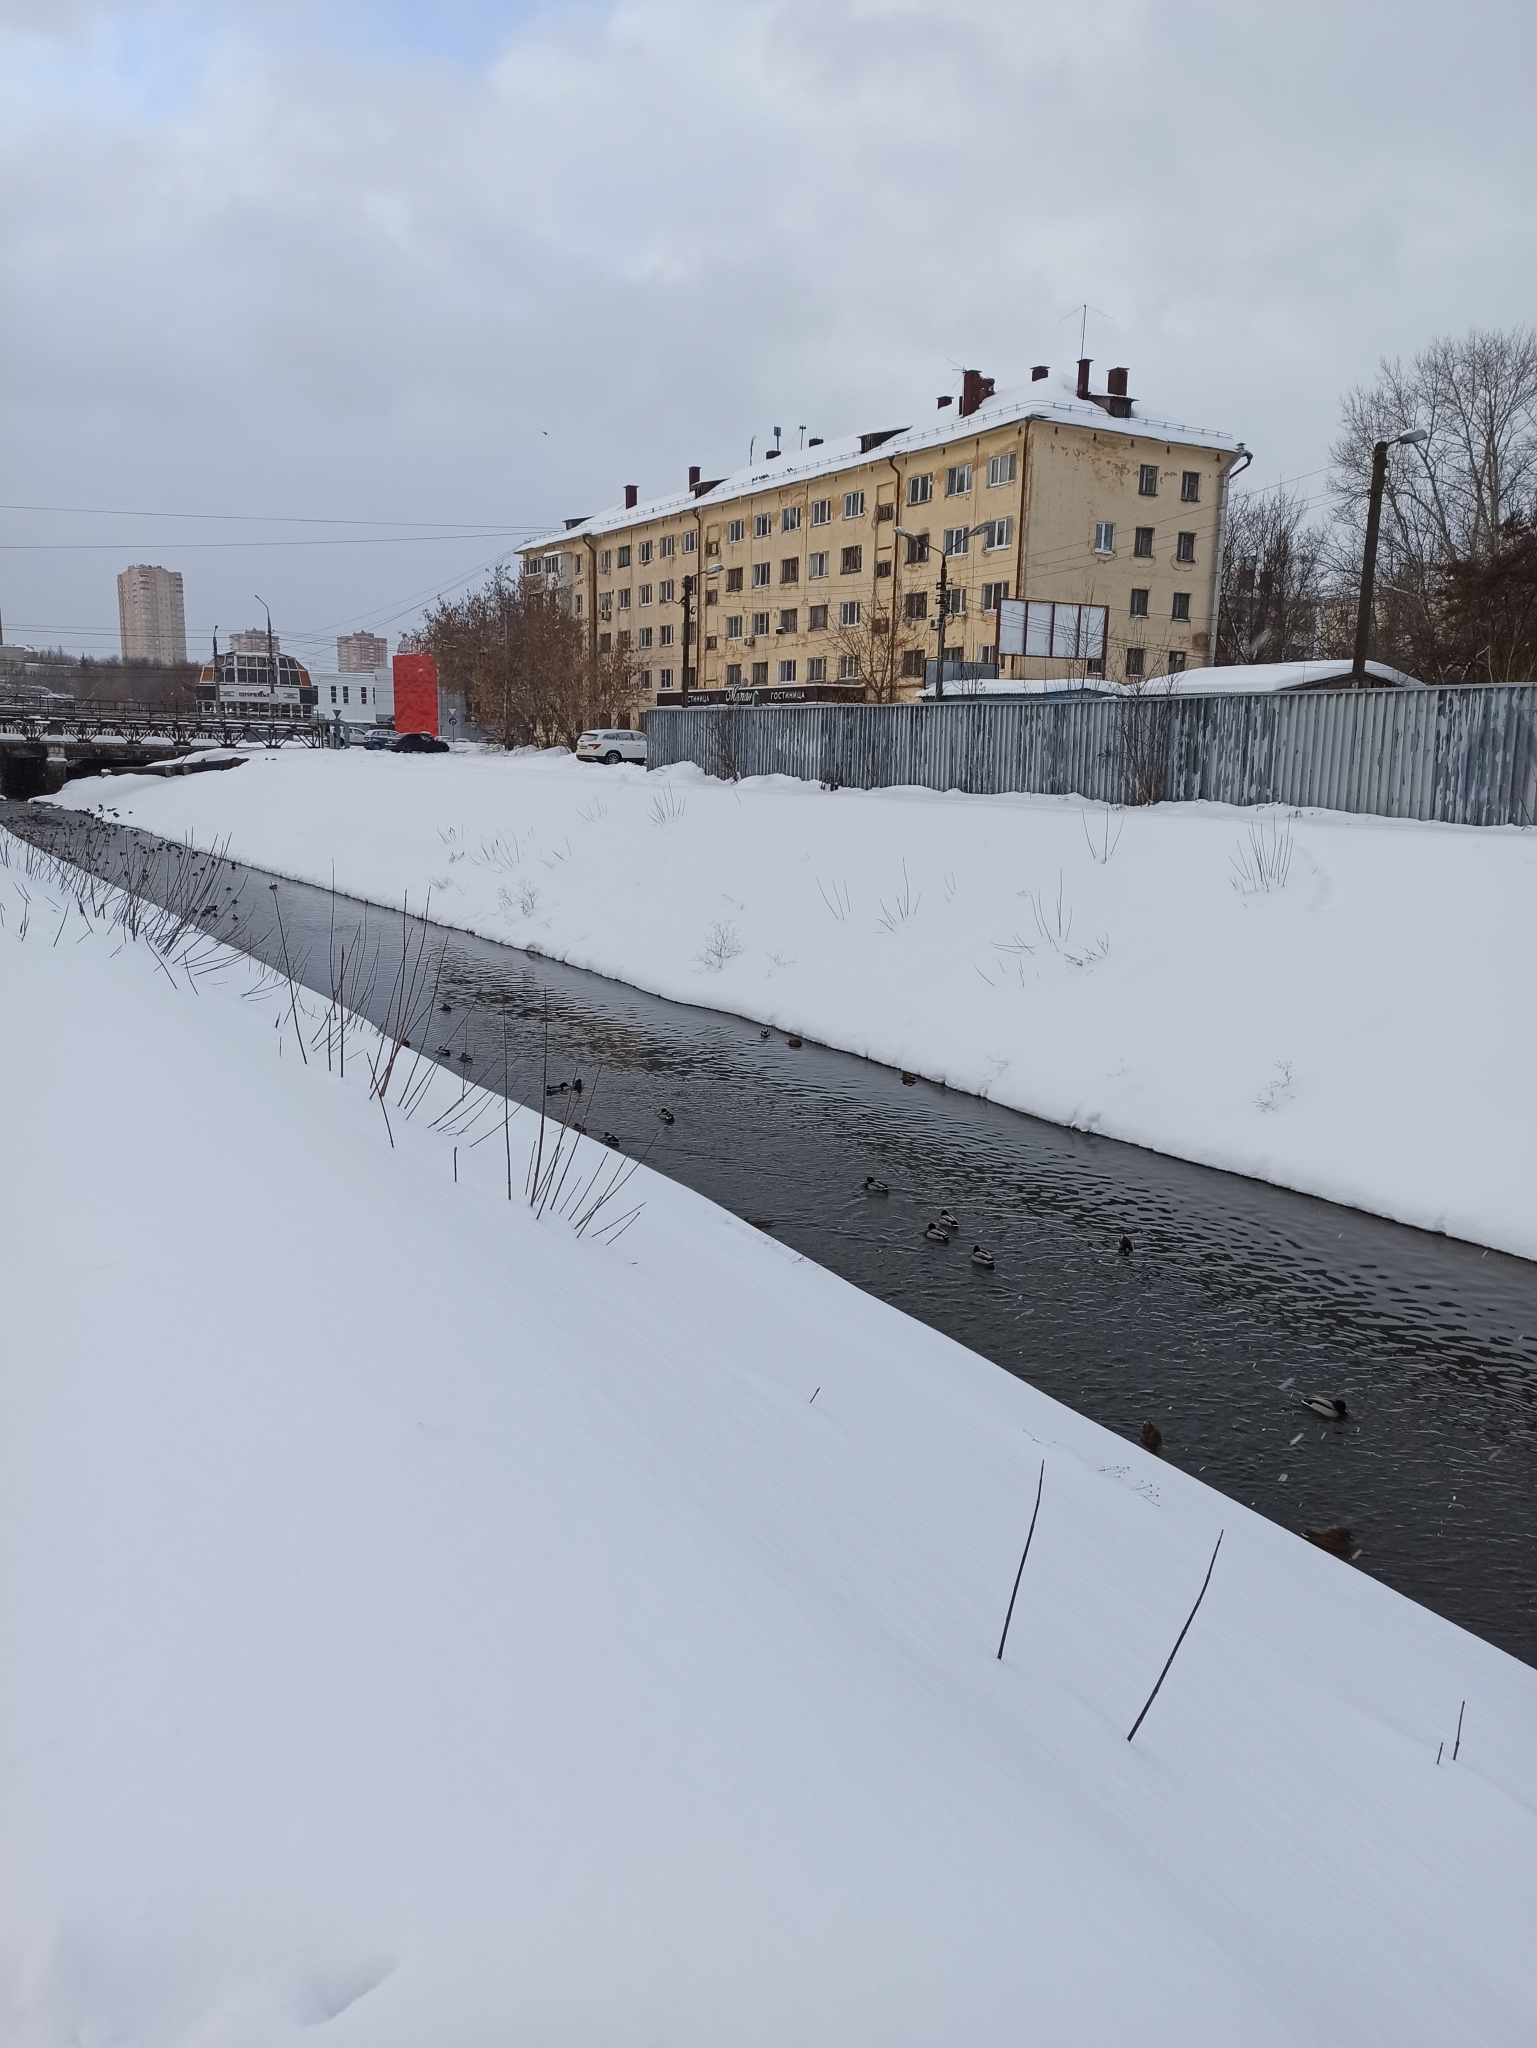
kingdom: Animalia
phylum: Chordata
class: Aves
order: Anseriformes
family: Anatidae
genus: Anas
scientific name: Anas platyrhynchos
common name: Mallard
